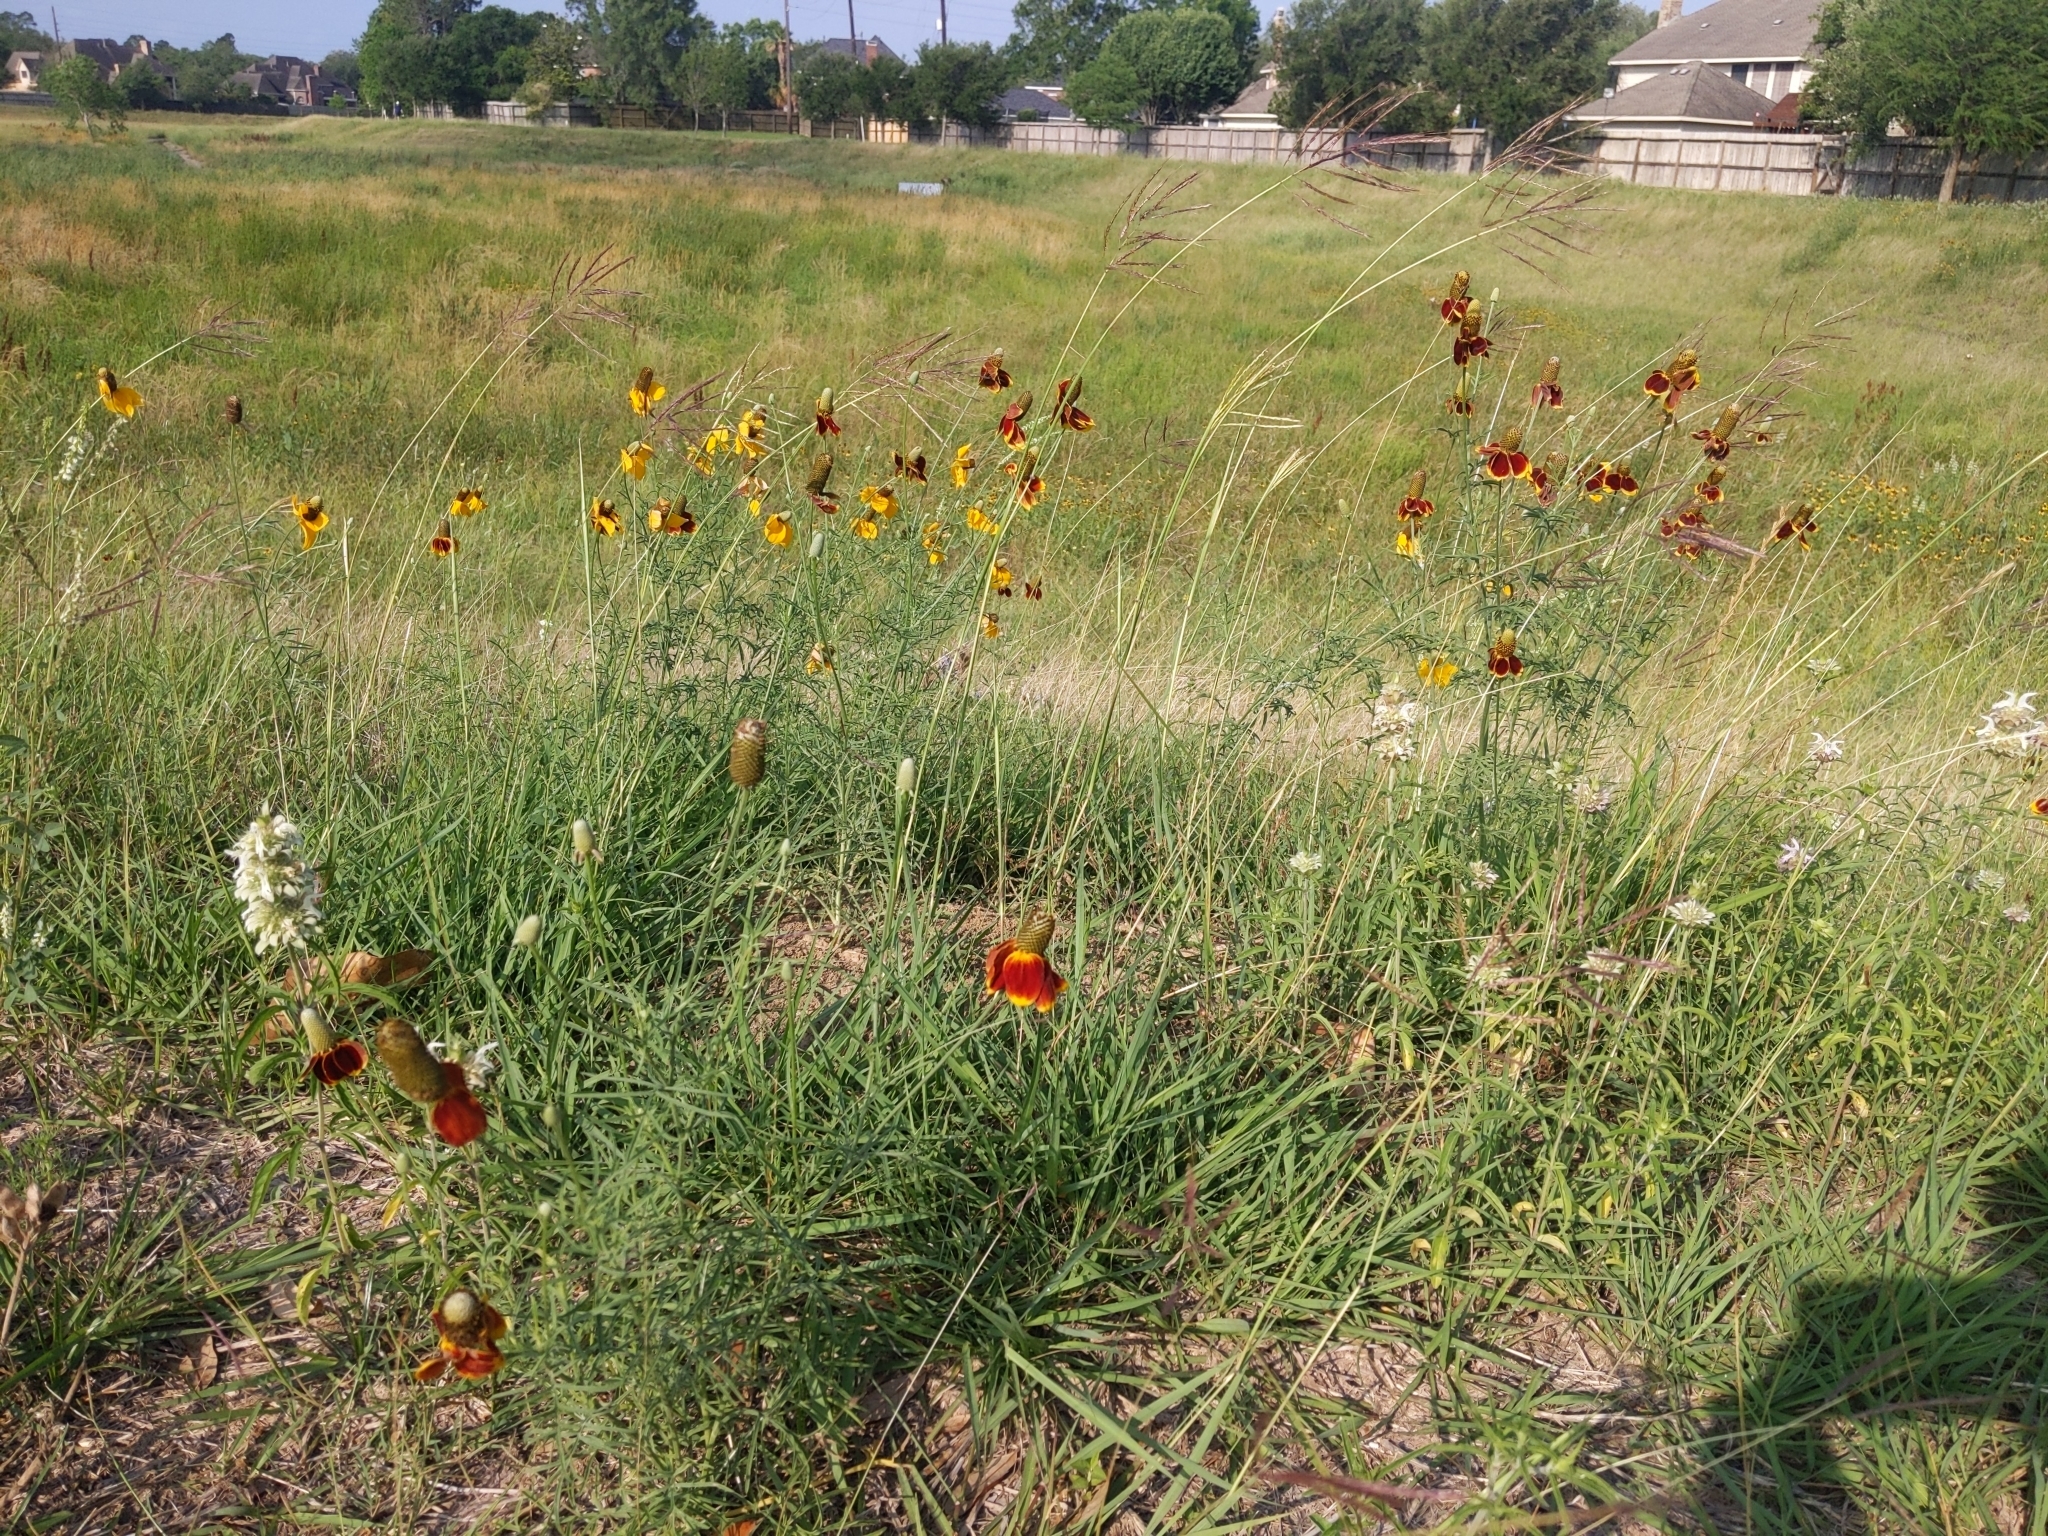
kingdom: Plantae
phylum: Tracheophyta
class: Magnoliopsida
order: Asterales
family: Asteraceae
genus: Ratibida
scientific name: Ratibida columnifera
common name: Prairie coneflower
